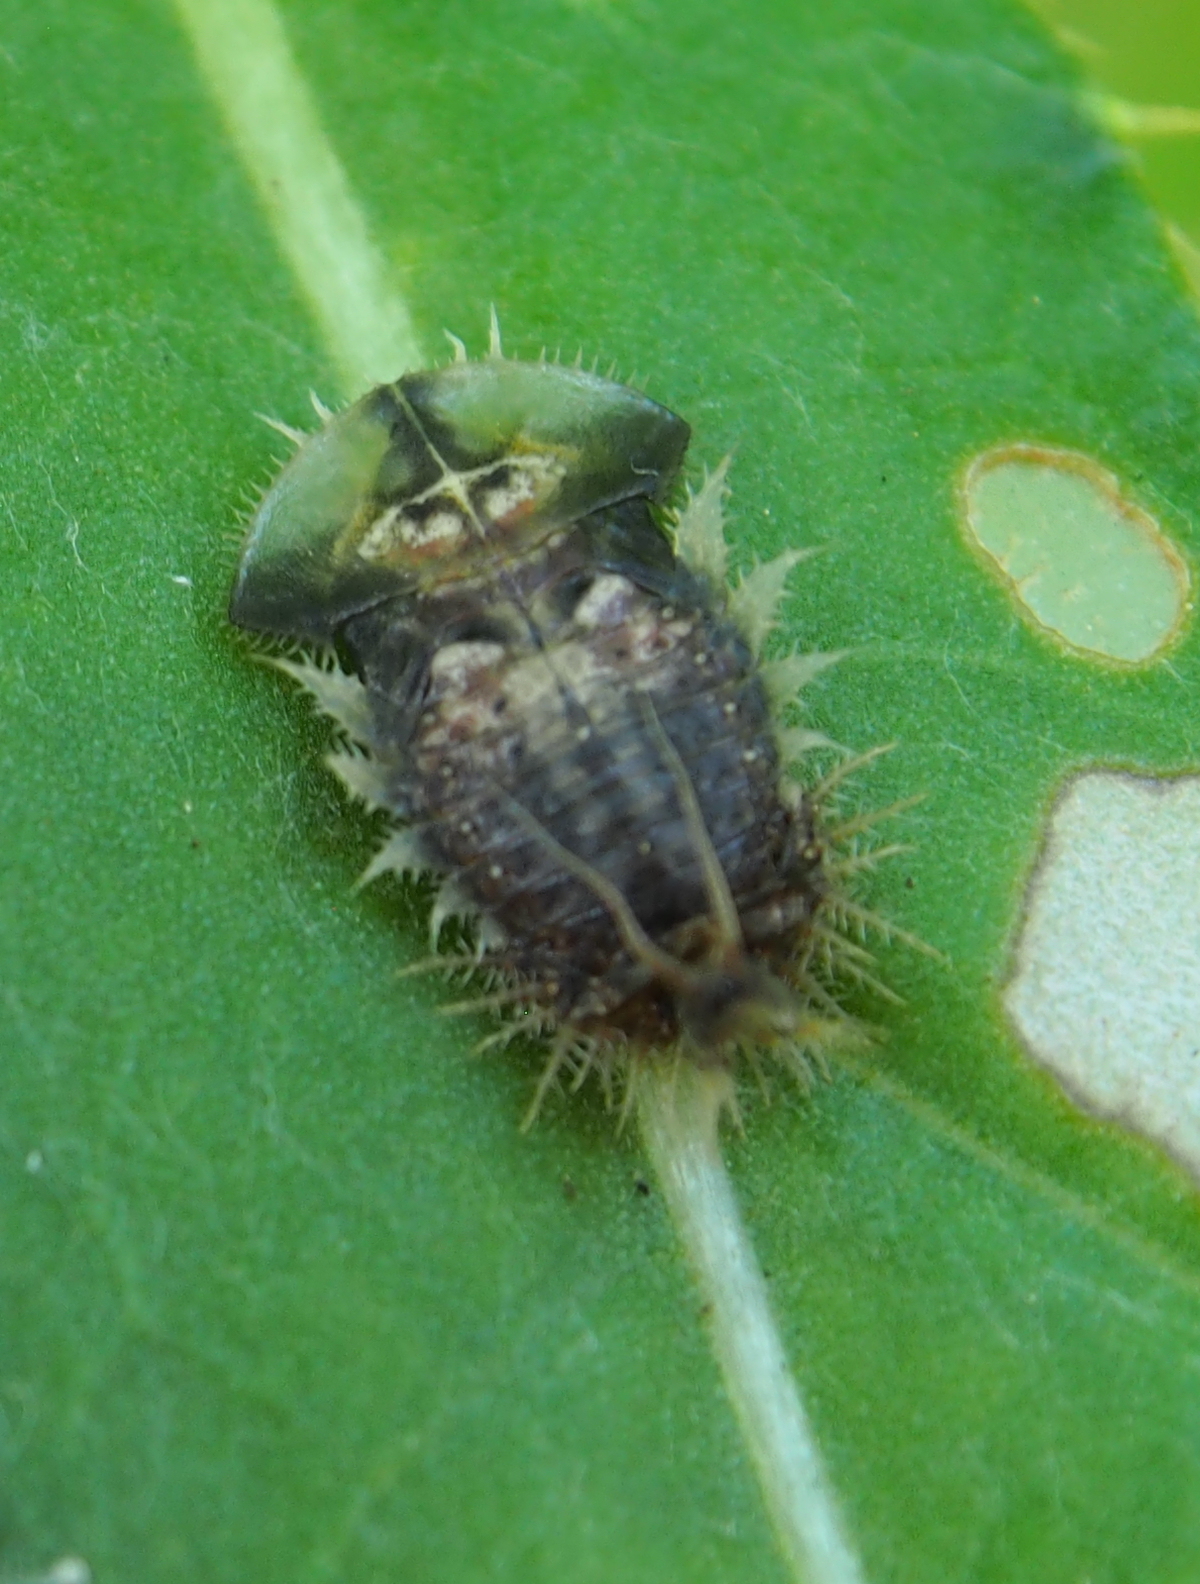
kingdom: Animalia
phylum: Arthropoda
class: Insecta
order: Coleoptera
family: Chrysomelidae
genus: Cassida
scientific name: Cassida rubiginosa
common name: Thistle tortoise beetle
